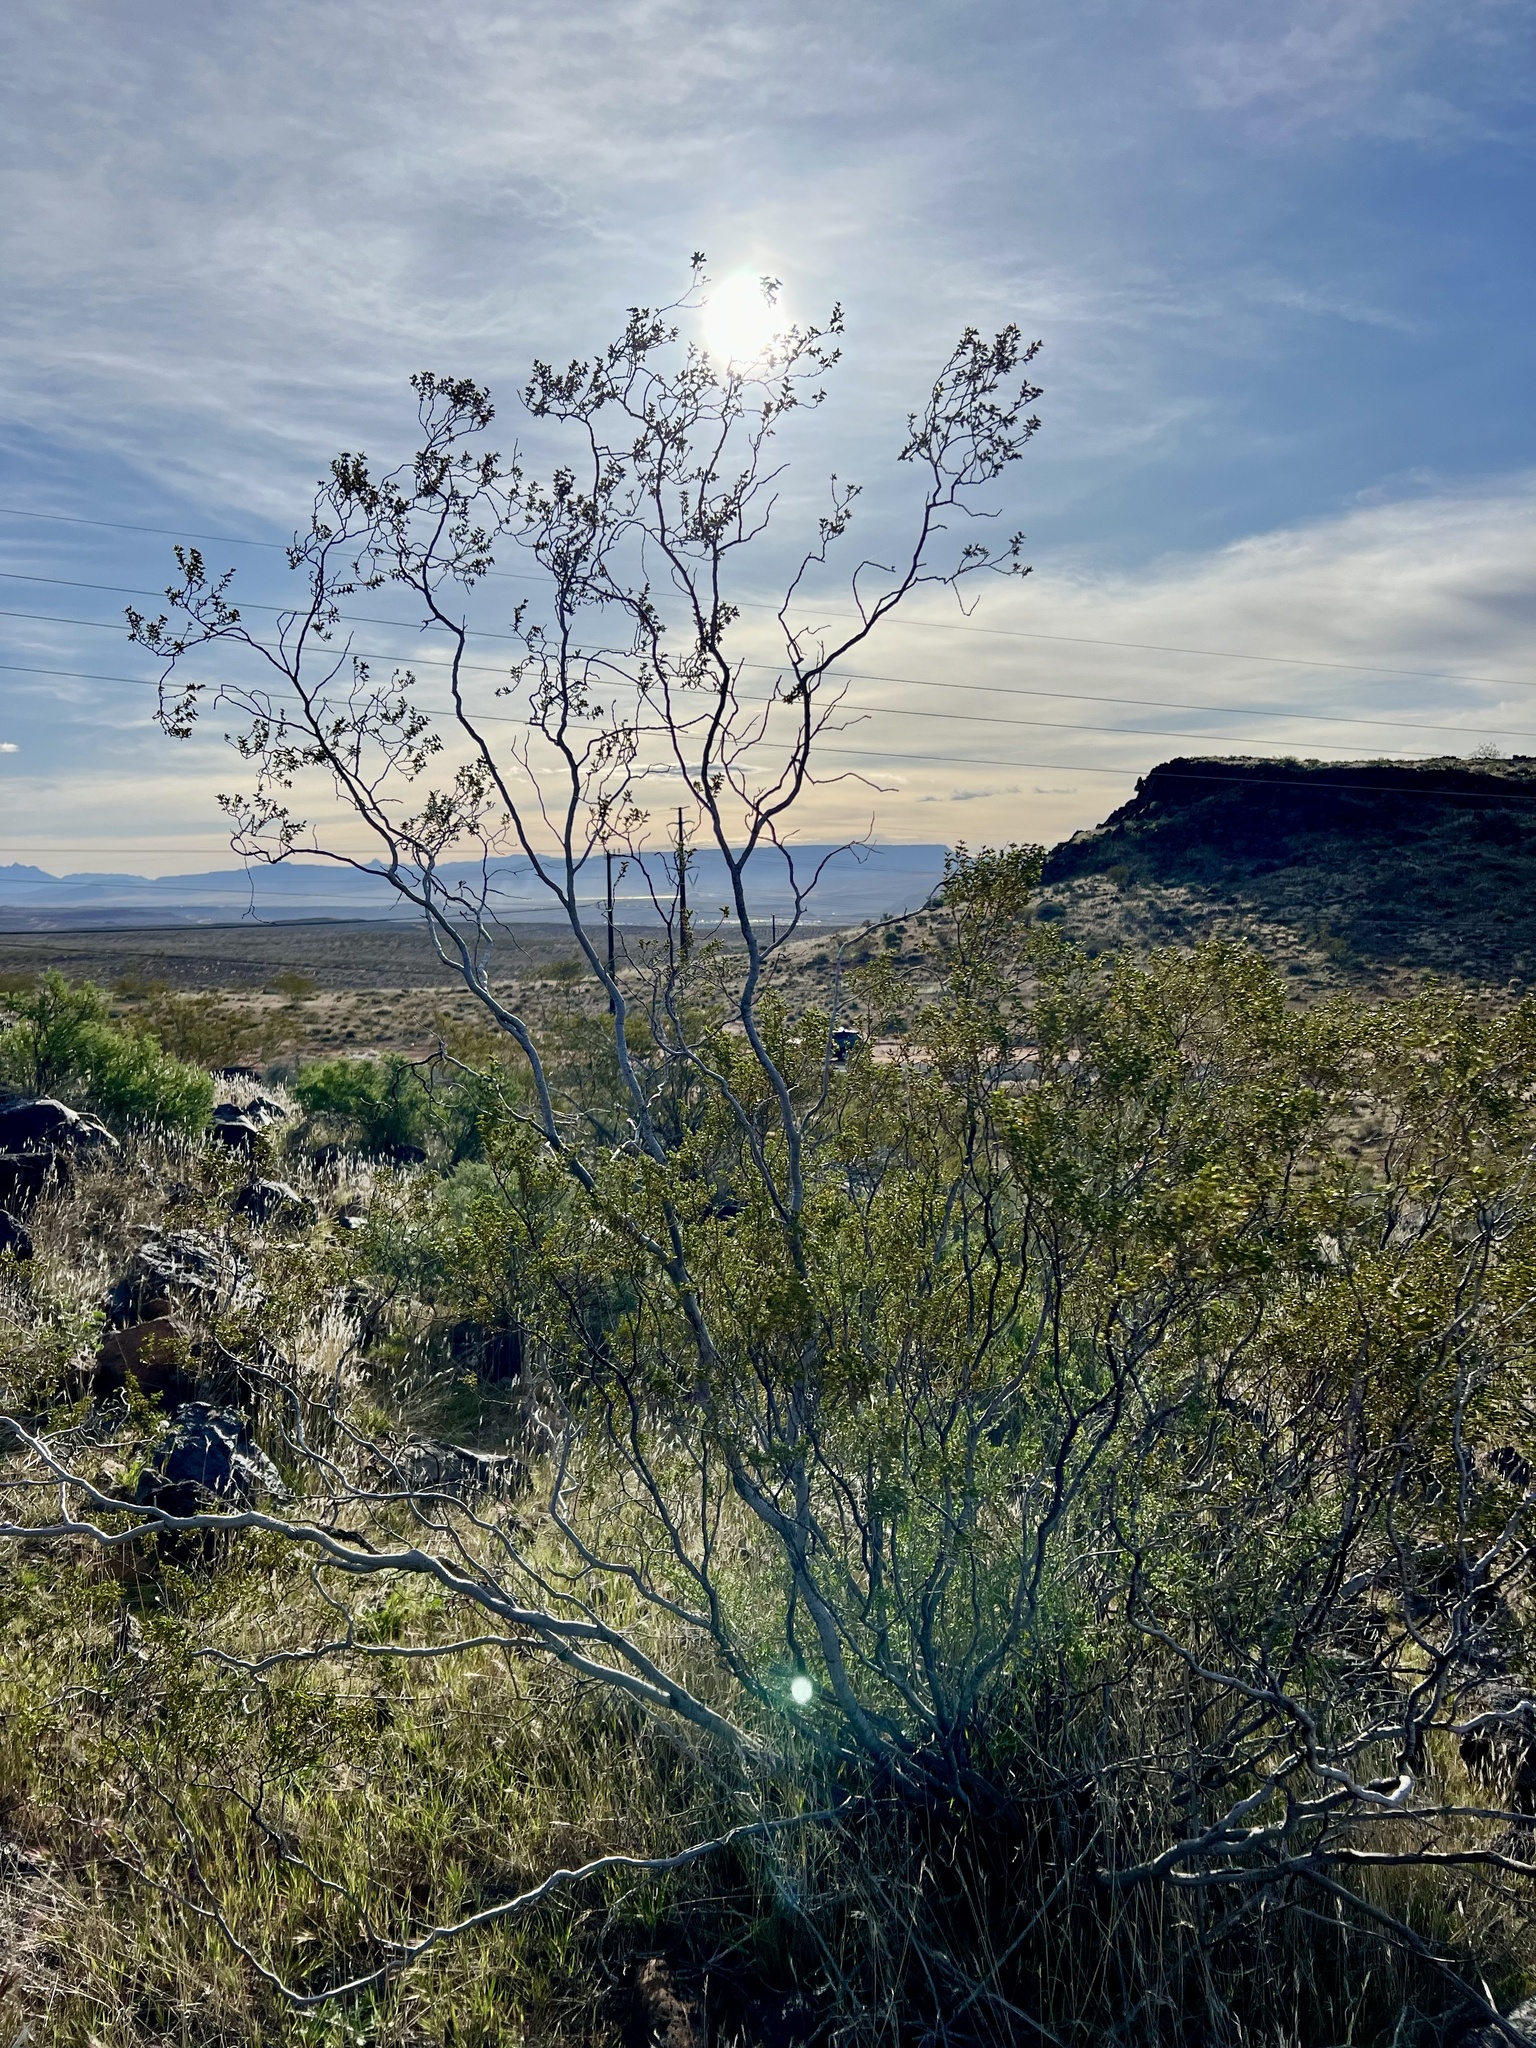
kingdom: Plantae
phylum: Tracheophyta
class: Magnoliopsida
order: Zygophyllales
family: Zygophyllaceae
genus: Larrea
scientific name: Larrea tridentata
